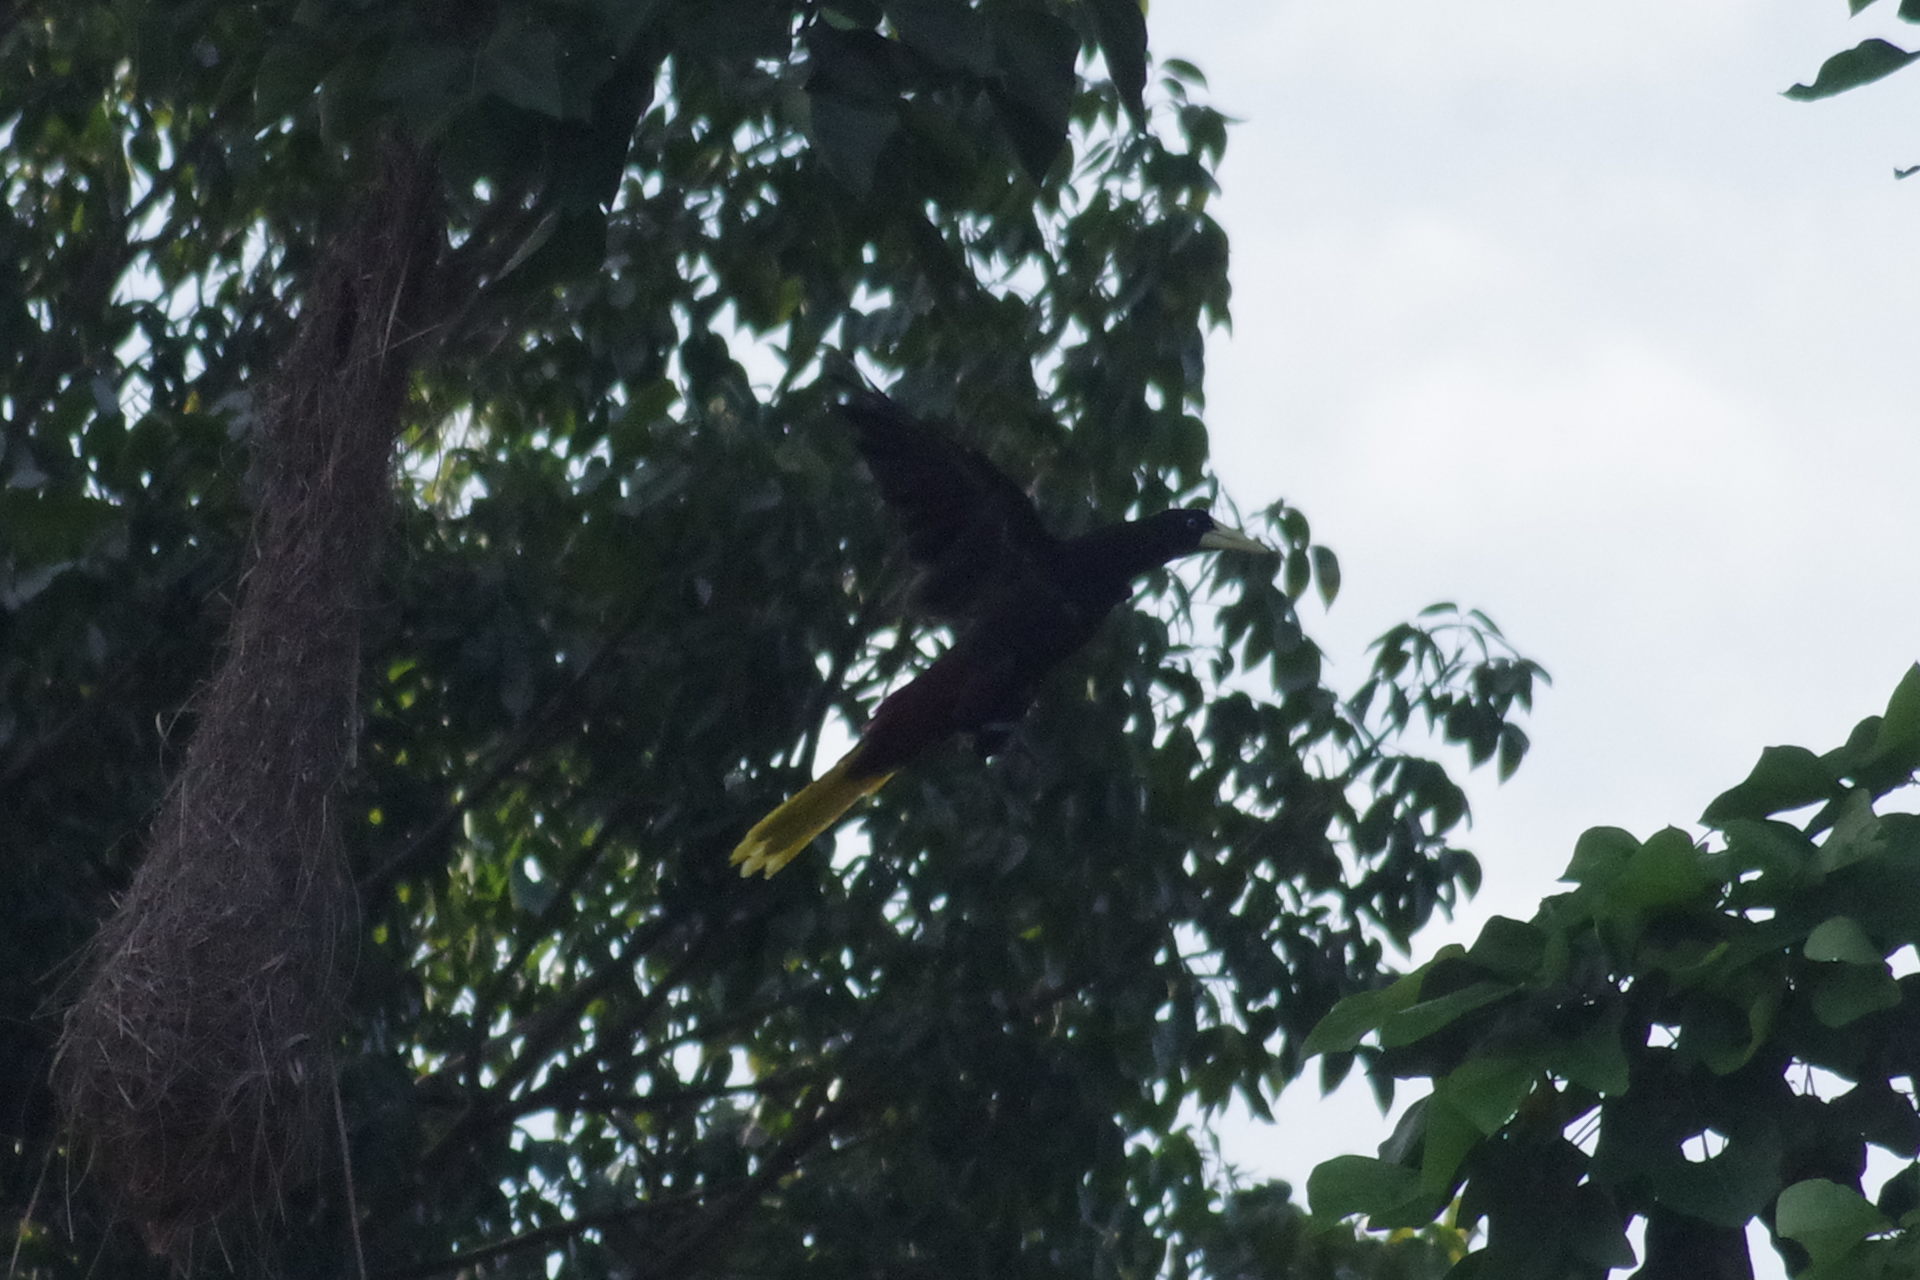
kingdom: Animalia
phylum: Chordata
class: Aves
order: Passeriformes
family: Icteridae
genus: Psarocolius
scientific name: Psarocolius decumanus
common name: Crested oropendola
